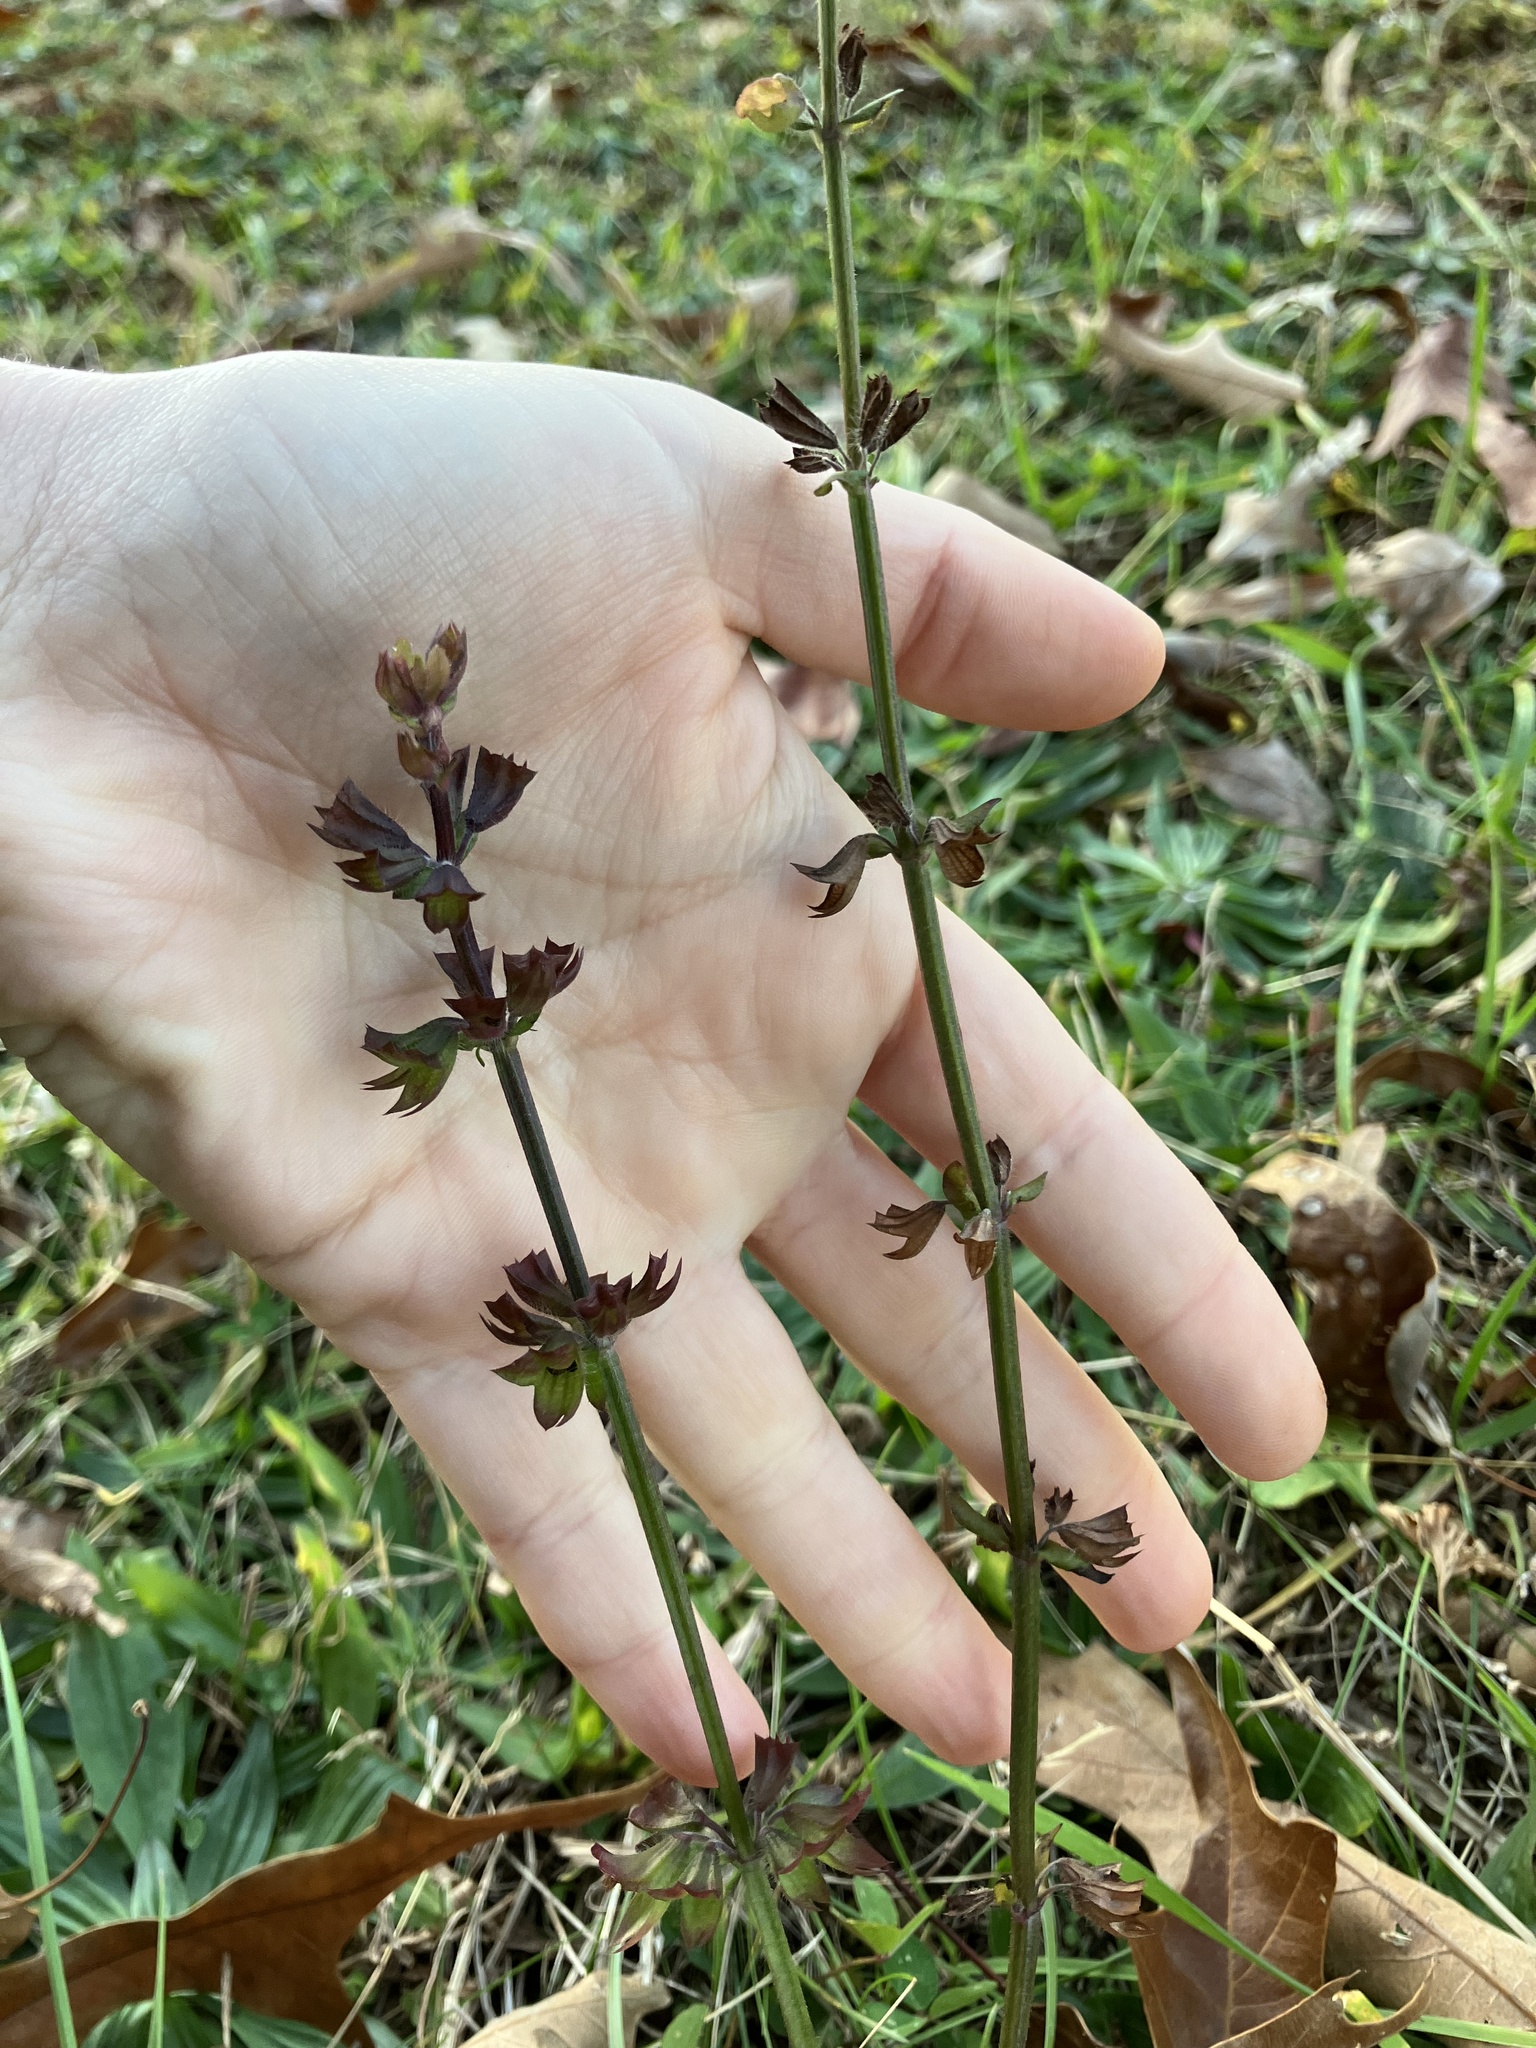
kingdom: Plantae
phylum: Tracheophyta
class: Magnoliopsida
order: Lamiales
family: Lamiaceae
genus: Salvia
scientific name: Salvia lyrata
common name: Cancerweed
